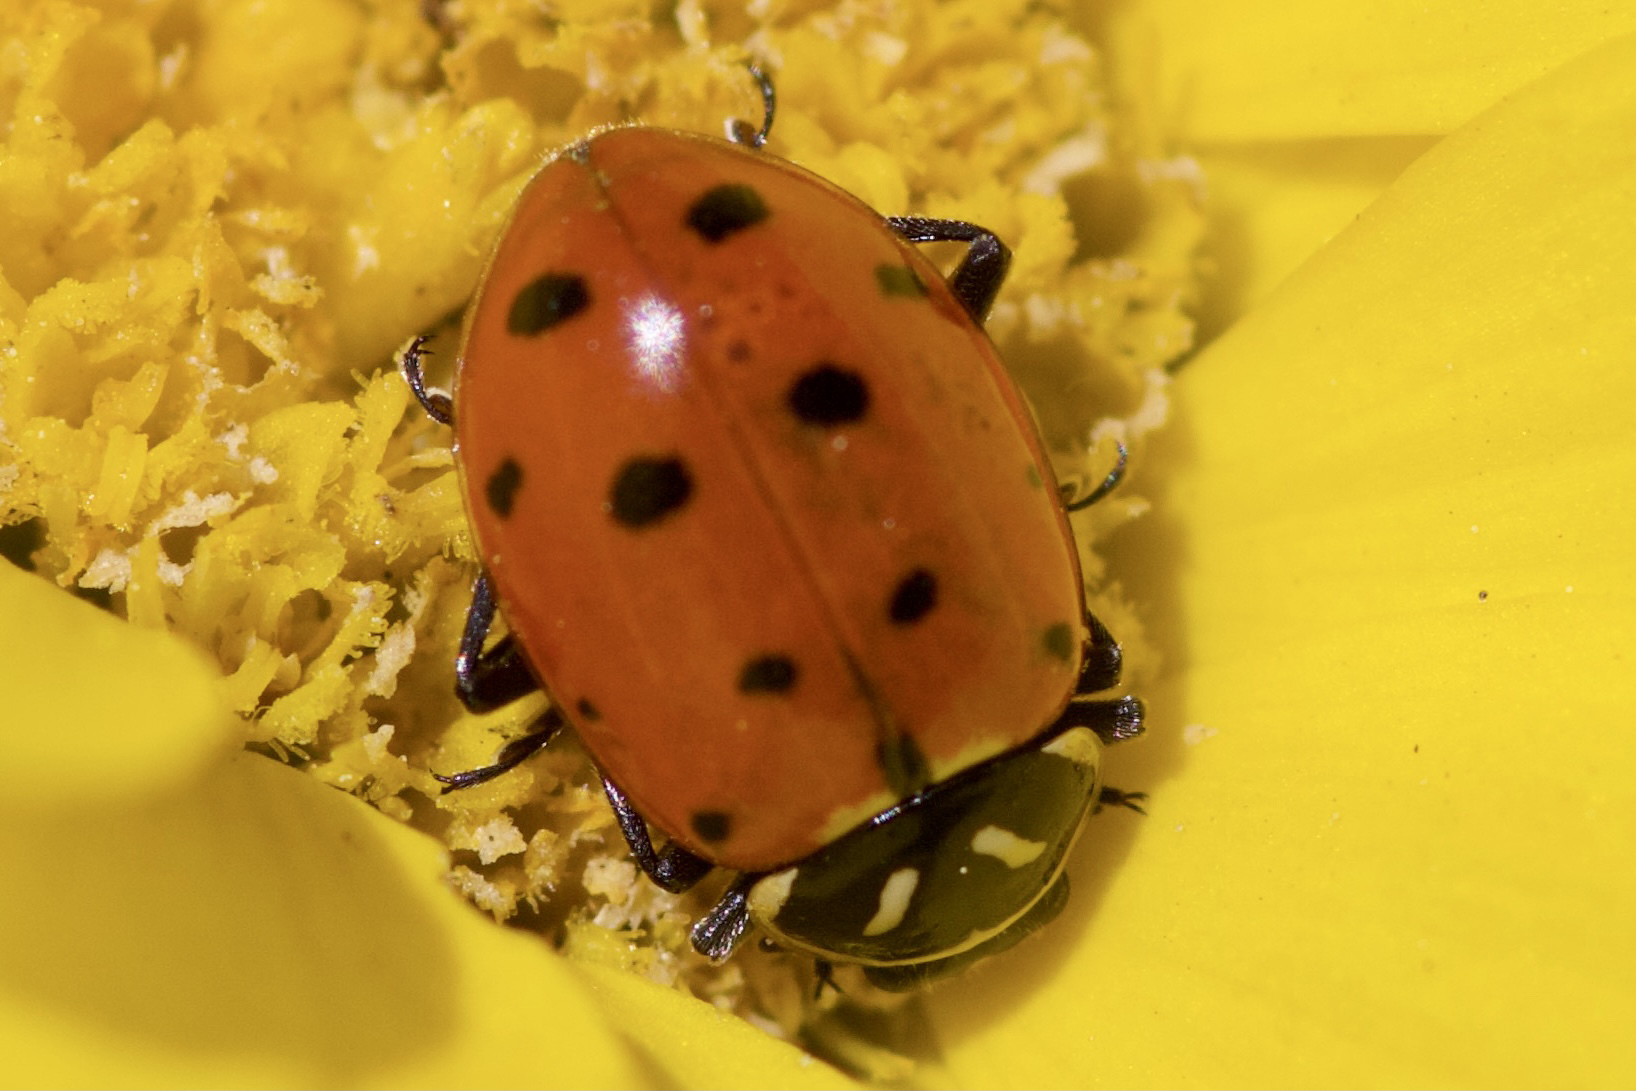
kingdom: Animalia
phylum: Arthropoda
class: Insecta
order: Coleoptera
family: Coccinellidae
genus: Hippodamia
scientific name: Hippodamia convergens
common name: Convergent lady beetle
